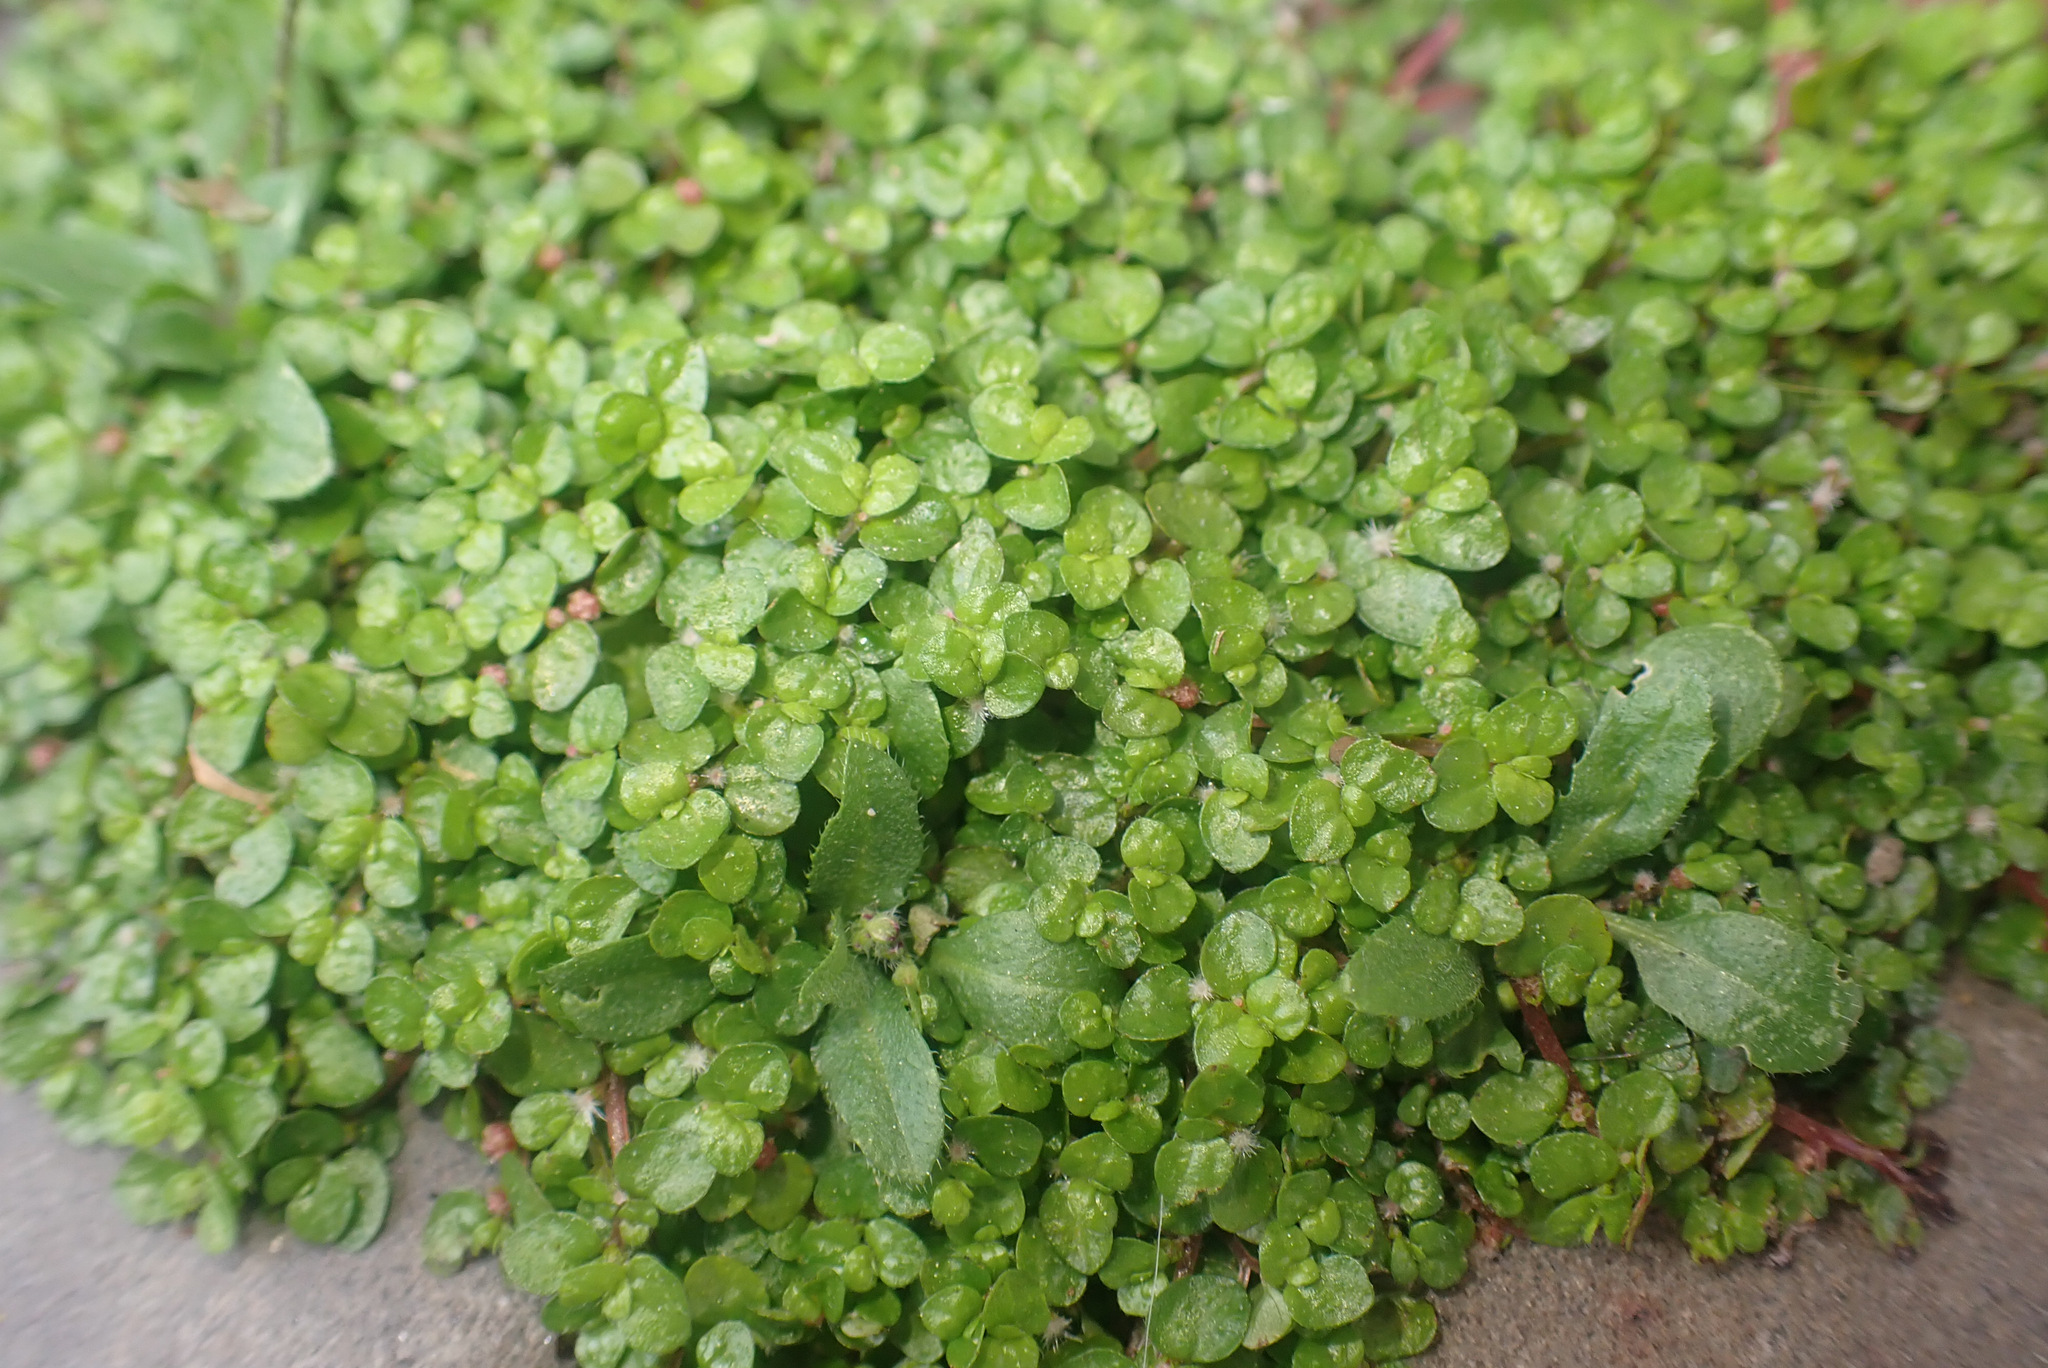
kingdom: Plantae
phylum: Tracheophyta
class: Magnoliopsida
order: Rosales
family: Urticaceae
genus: Soleirolia
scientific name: Soleirolia soleirolii
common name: Mind-your-own-business
